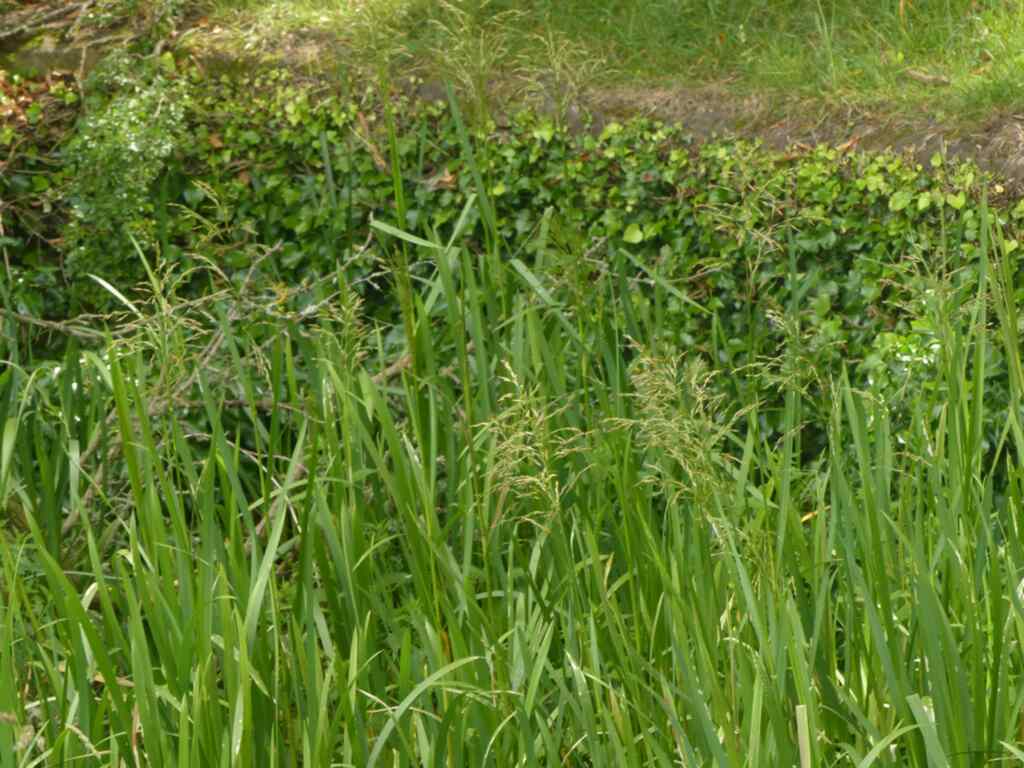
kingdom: Plantae
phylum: Tracheophyta
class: Liliopsida
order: Poales
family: Poaceae
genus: Glyceria
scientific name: Glyceria maxima
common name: Reed mannagrass
